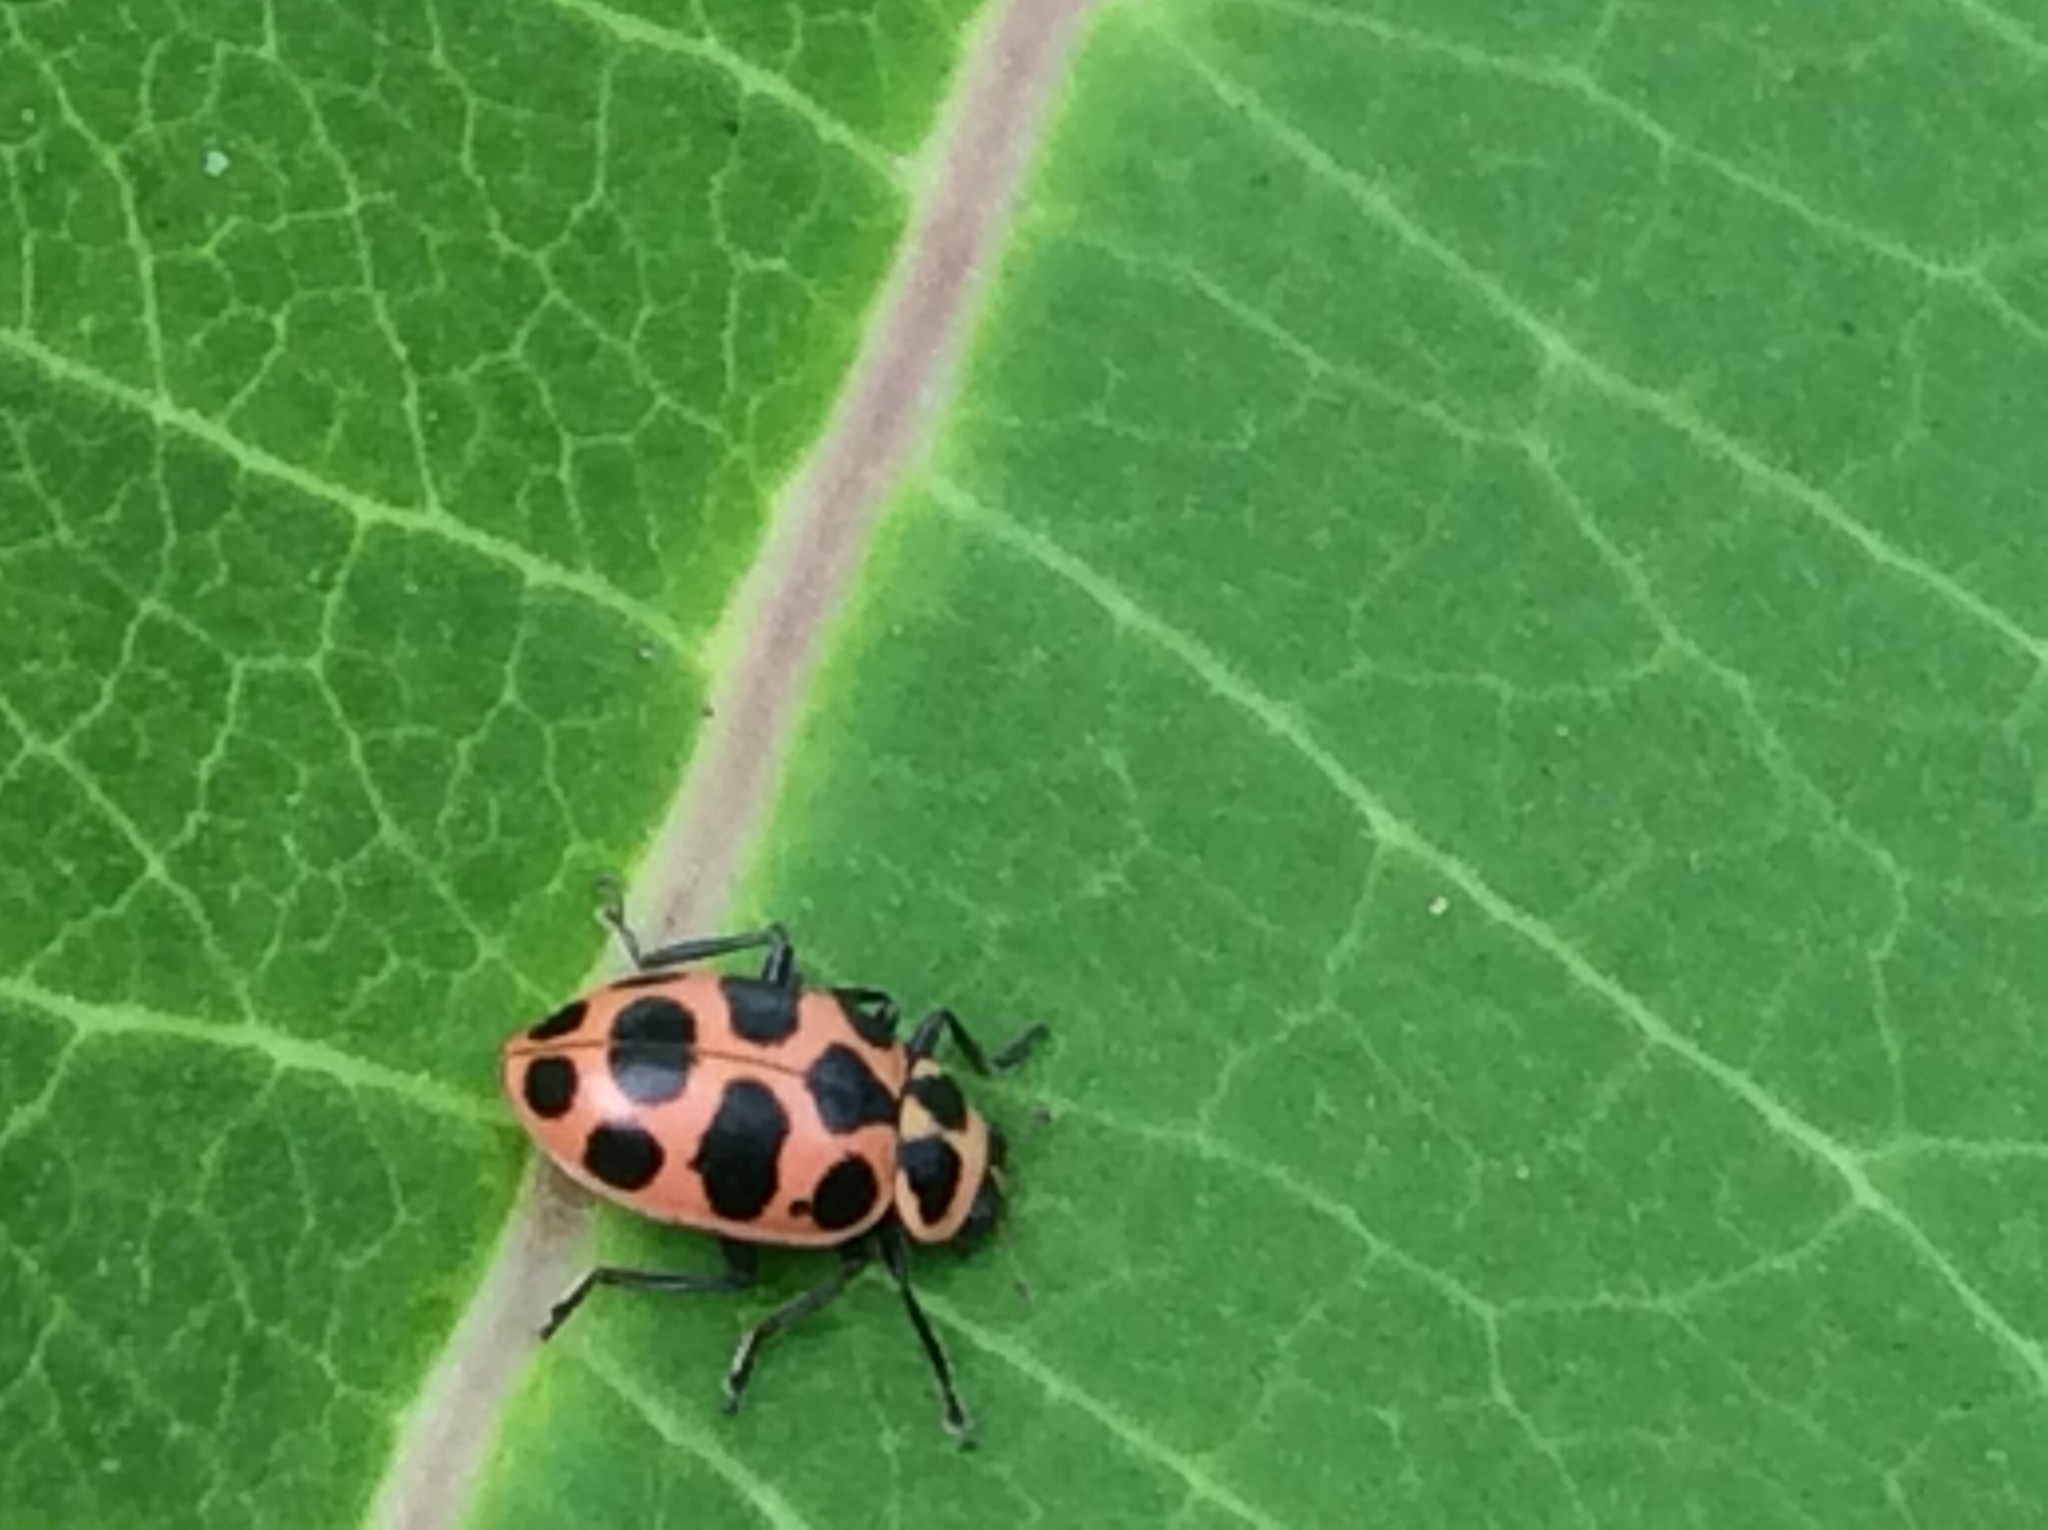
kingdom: Animalia
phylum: Arthropoda
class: Insecta
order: Coleoptera
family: Coccinellidae
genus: Coleomegilla
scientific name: Coleomegilla maculata
